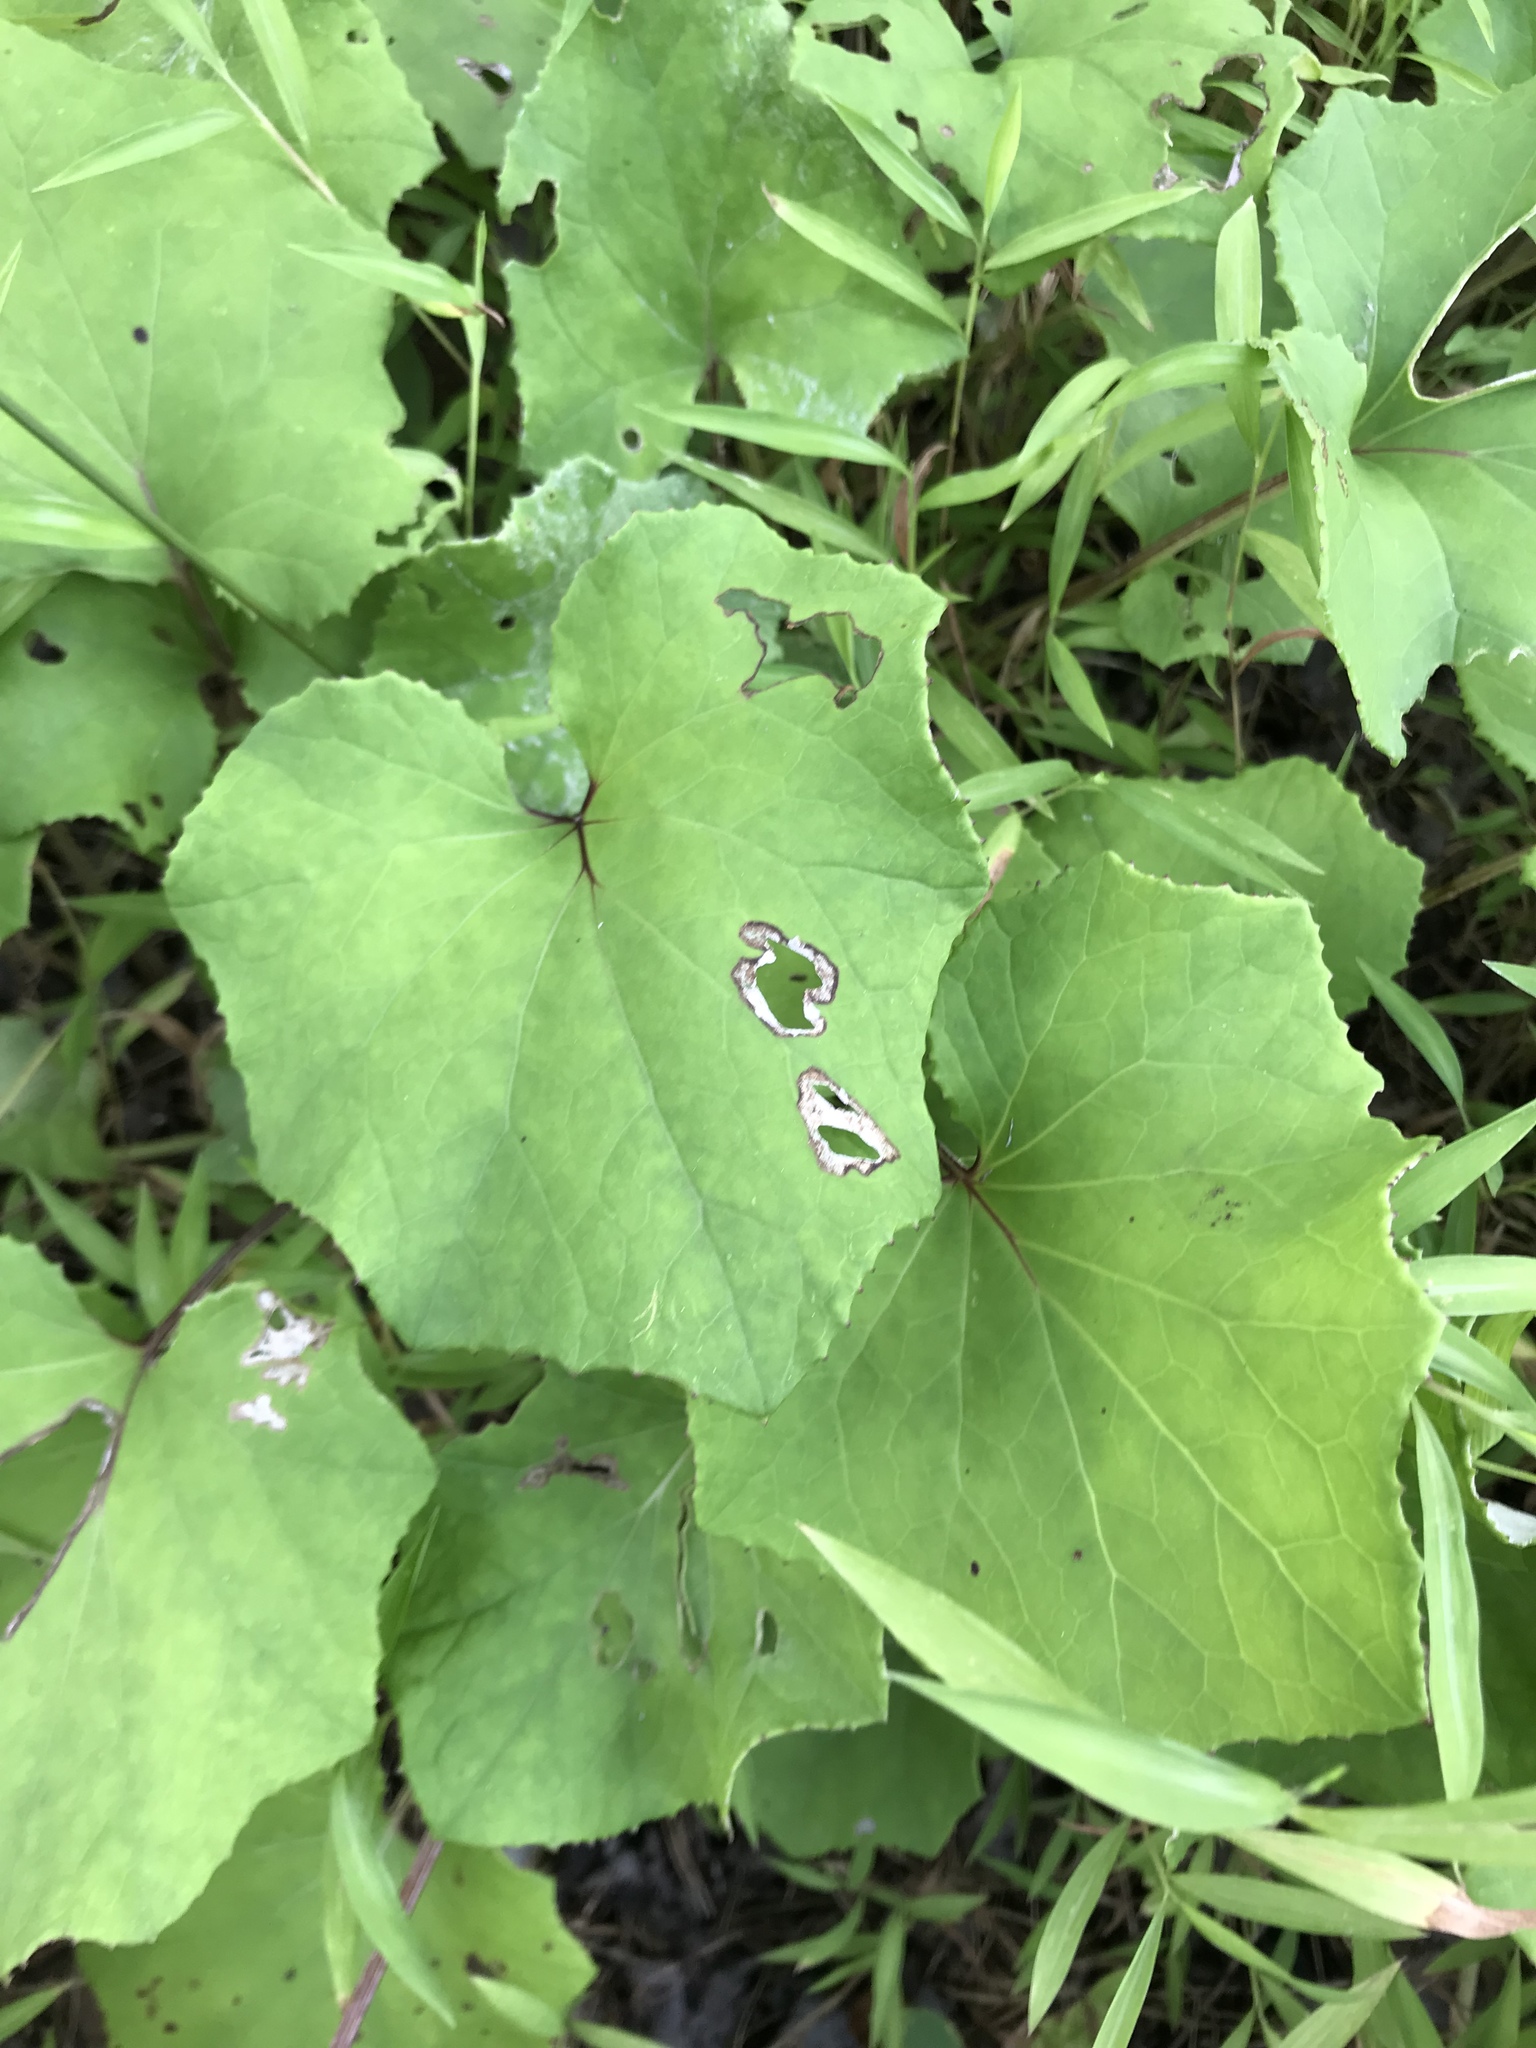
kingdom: Plantae
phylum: Tracheophyta
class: Magnoliopsida
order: Asterales
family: Asteraceae
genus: Tussilago
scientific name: Tussilago farfara
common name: Coltsfoot
